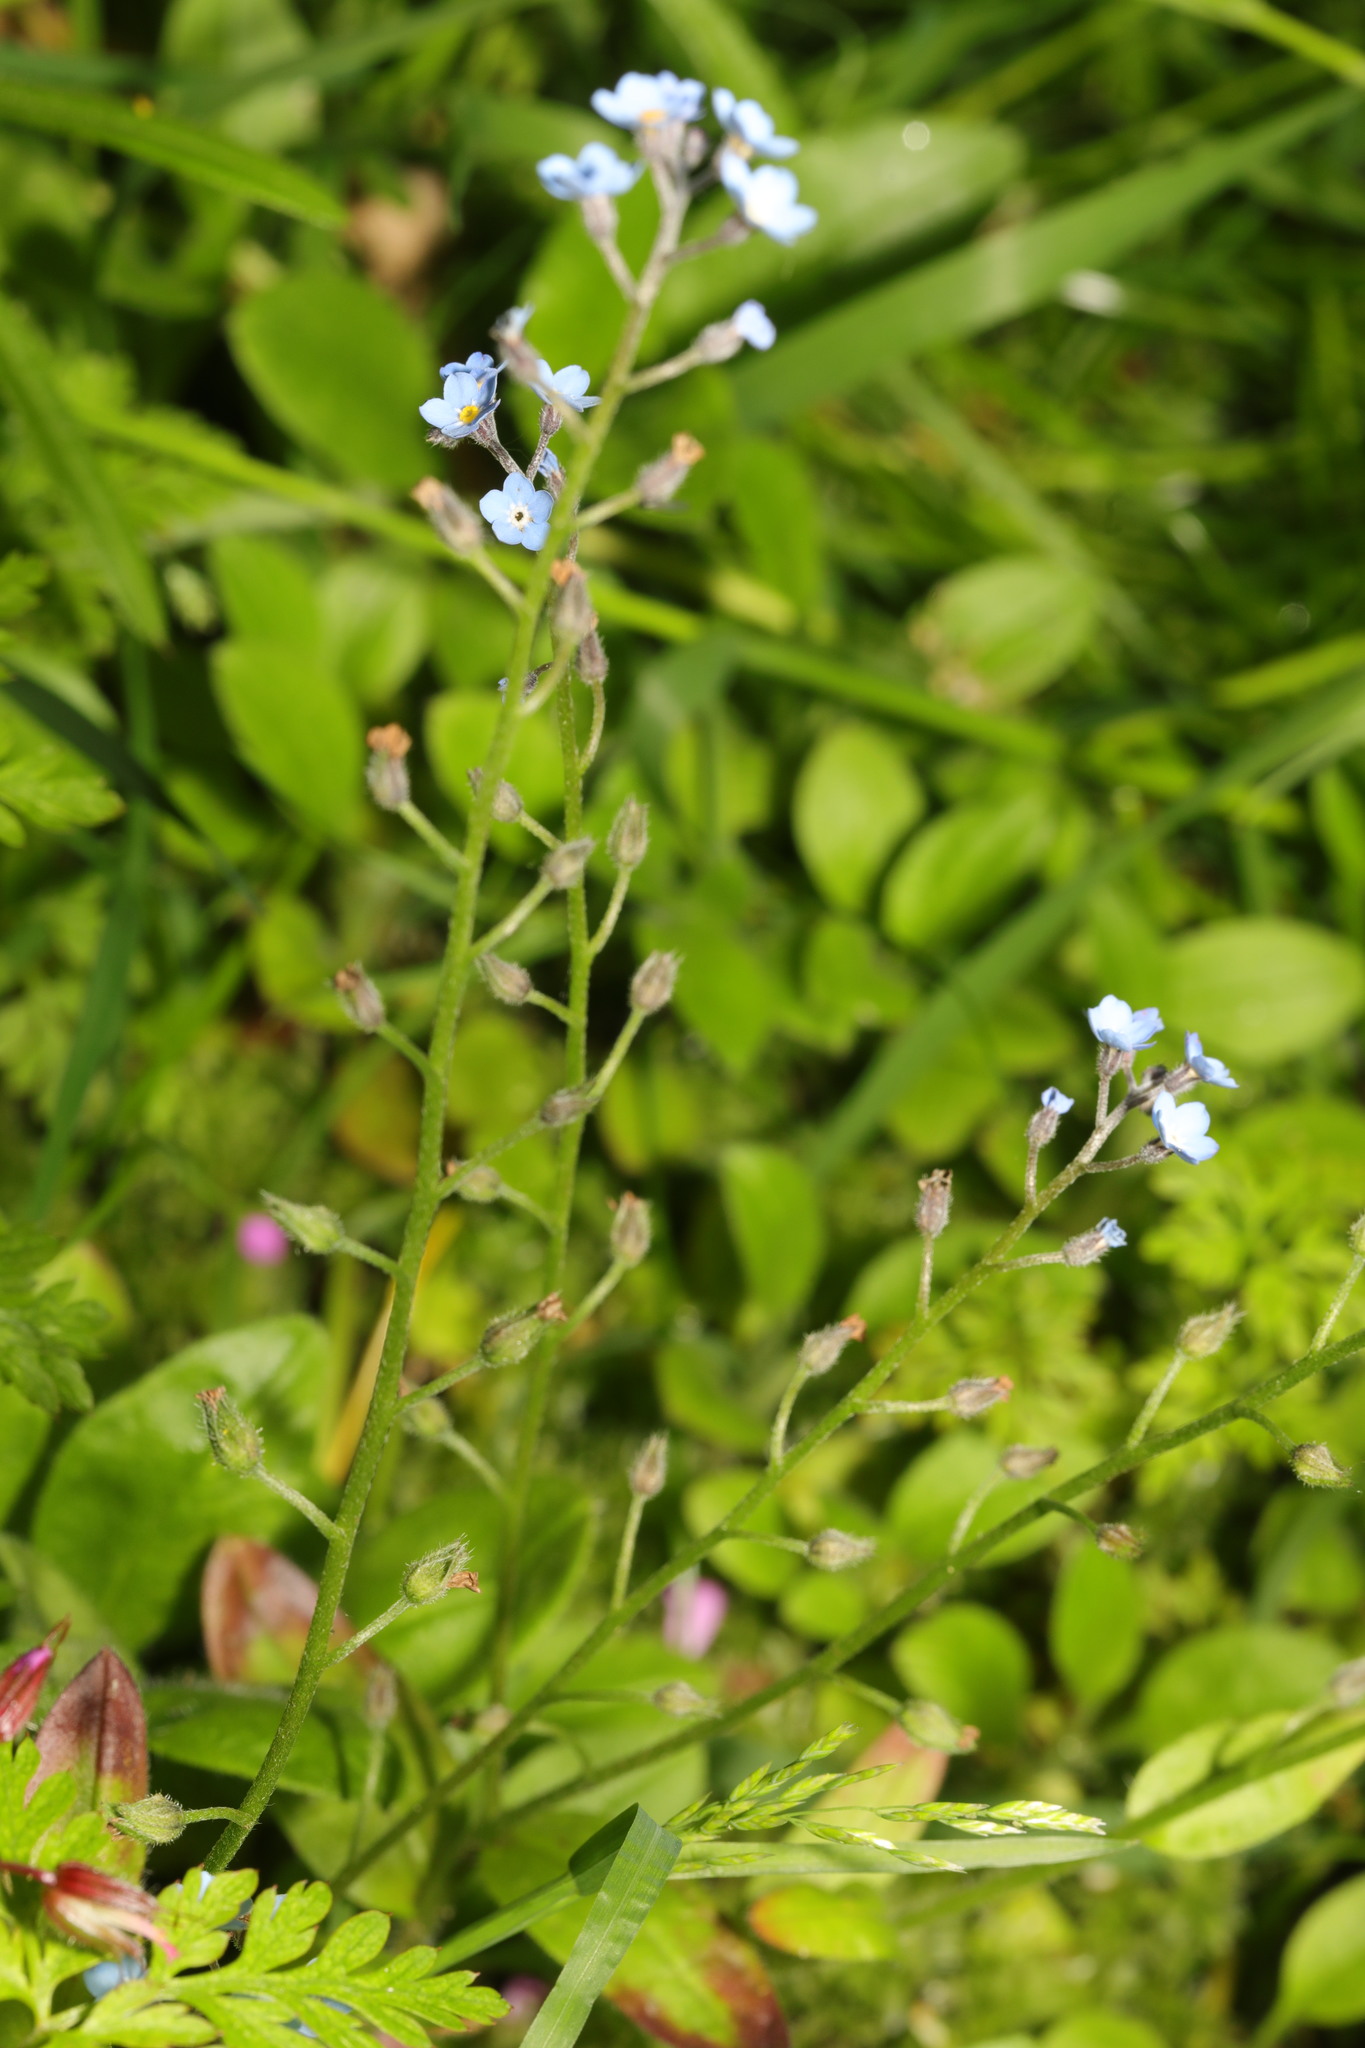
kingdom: Plantae
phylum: Tracheophyta
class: Magnoliopsida
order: Boraginales
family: Boraginaceae
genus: Myosotis
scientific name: Myosotis arvensis
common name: Field forget-me-not
